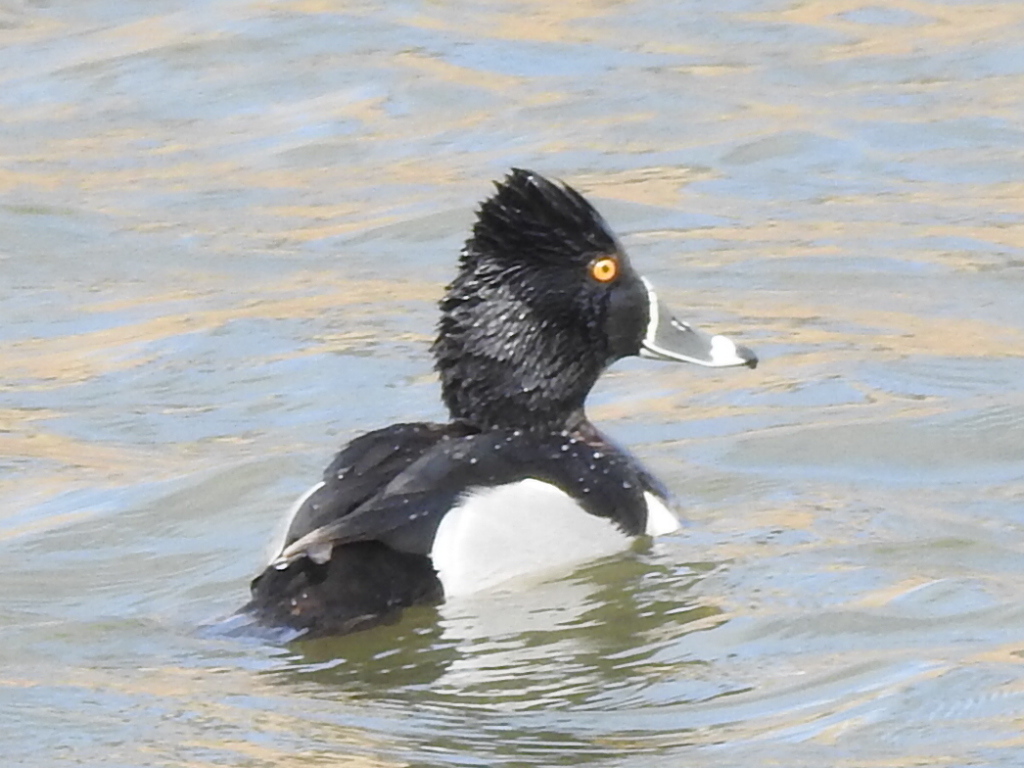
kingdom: Animalia
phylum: Chordata
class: Aves
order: Anseriformes
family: Anatidae
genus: Aythya
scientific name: Aythya collaris
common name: Ring-necked duck
